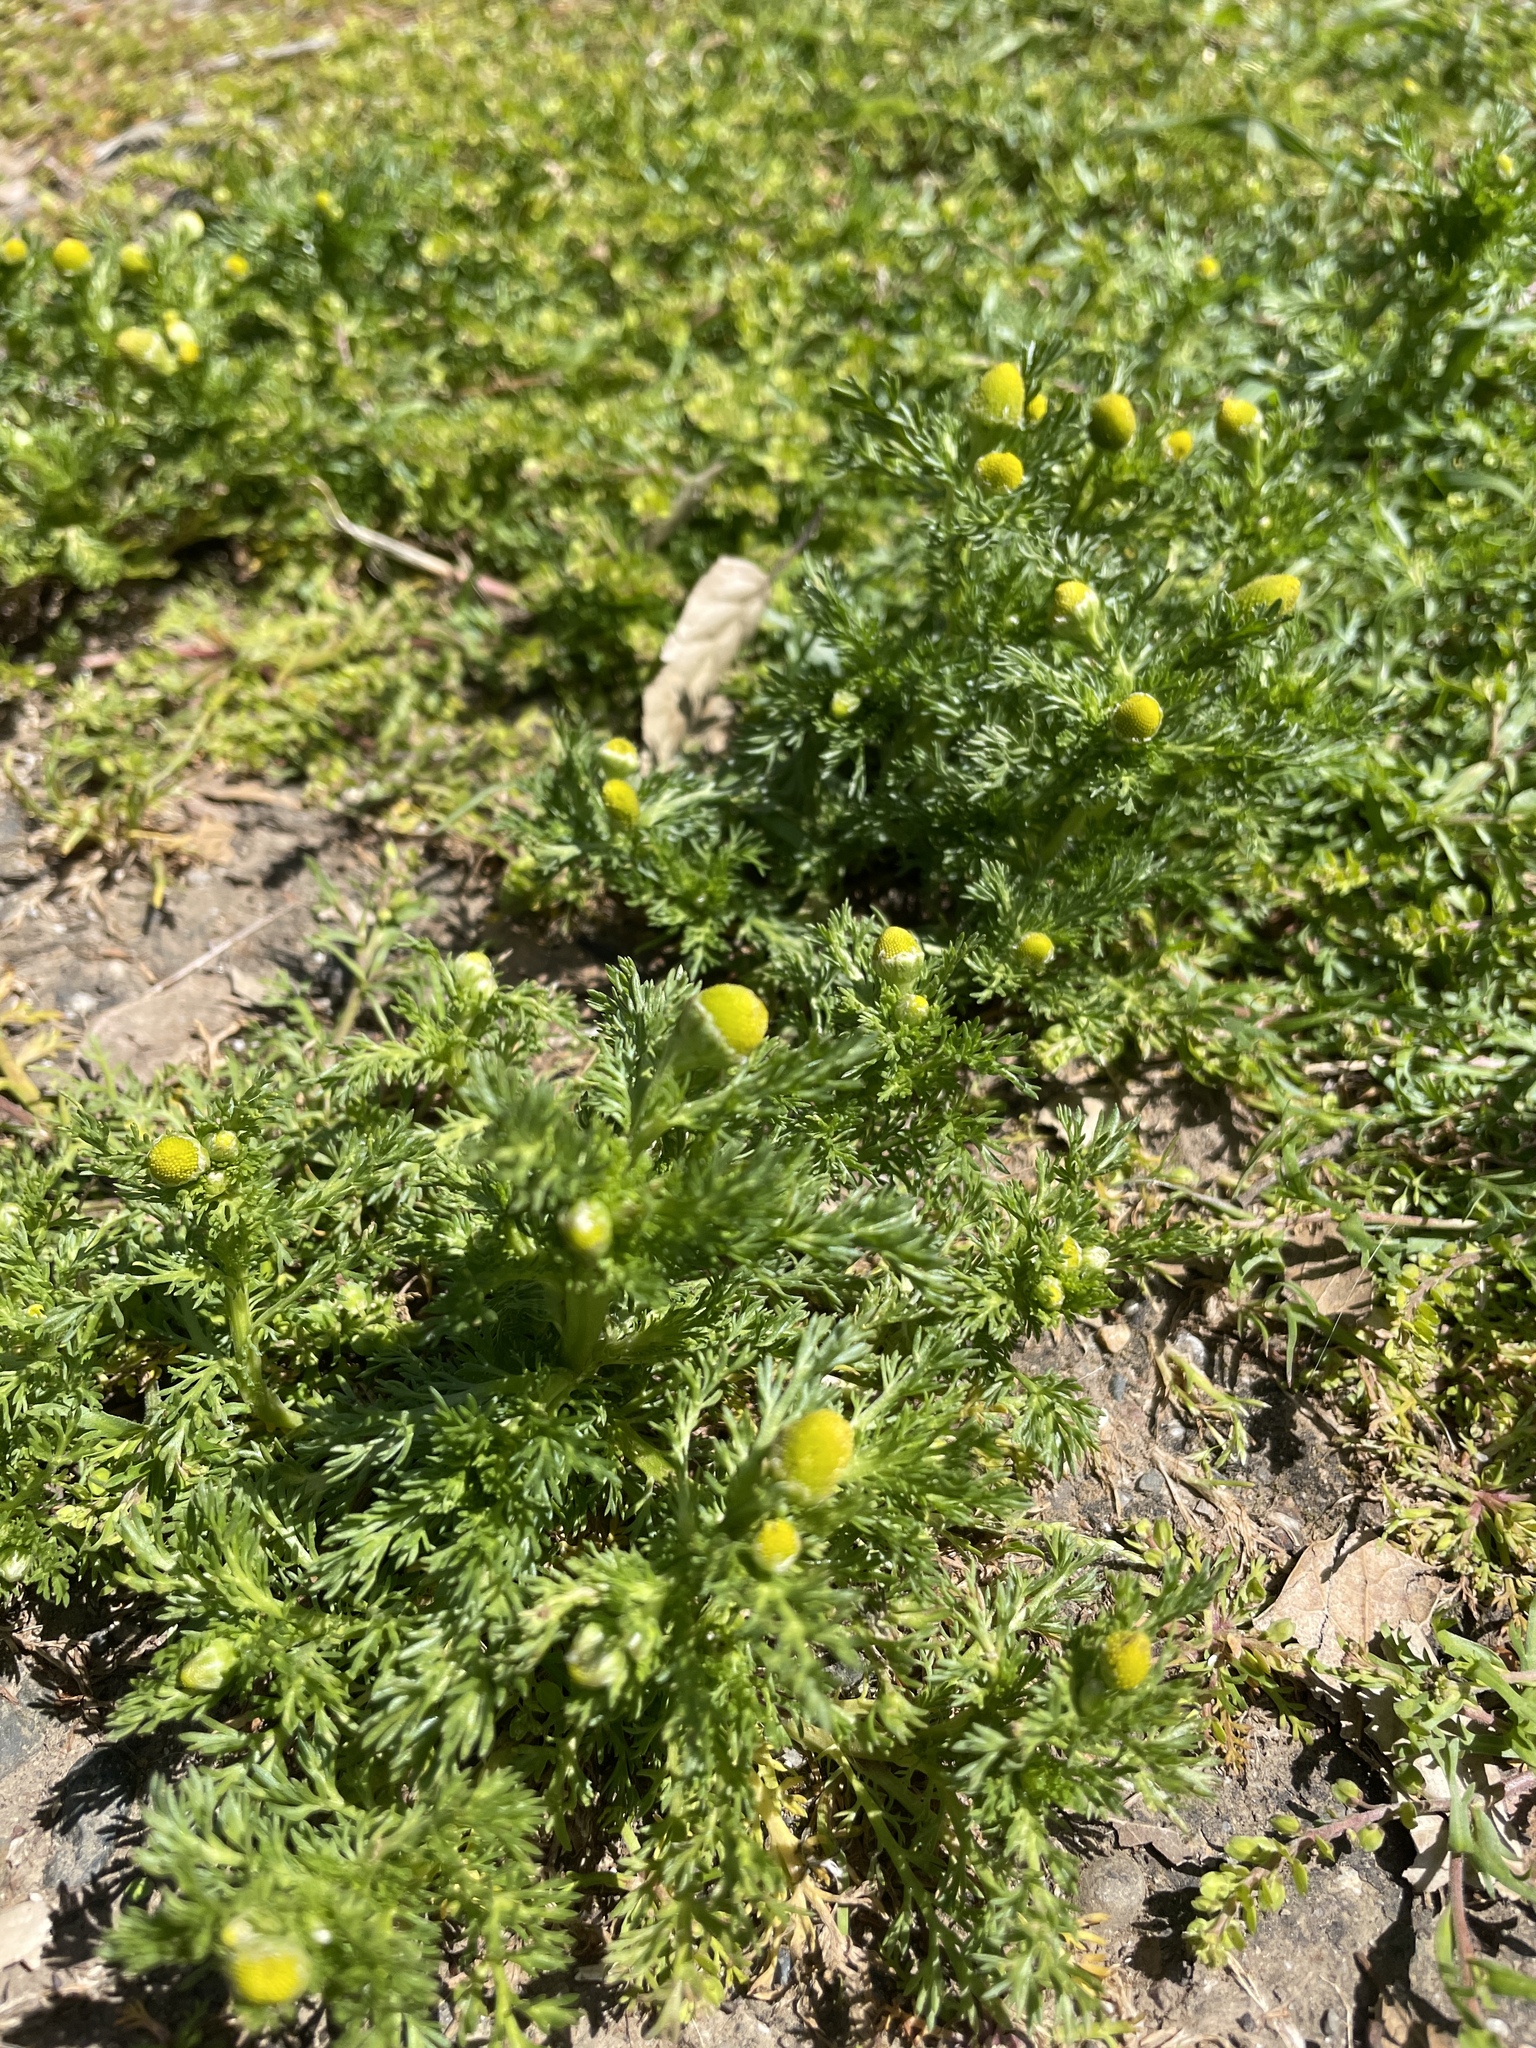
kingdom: Plantae
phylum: Tracheophyta
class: Magnoliopsida
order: Asterales
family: Asteraceae
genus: Matricaria
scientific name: Matricaria discoidea
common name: Disc mayweed
